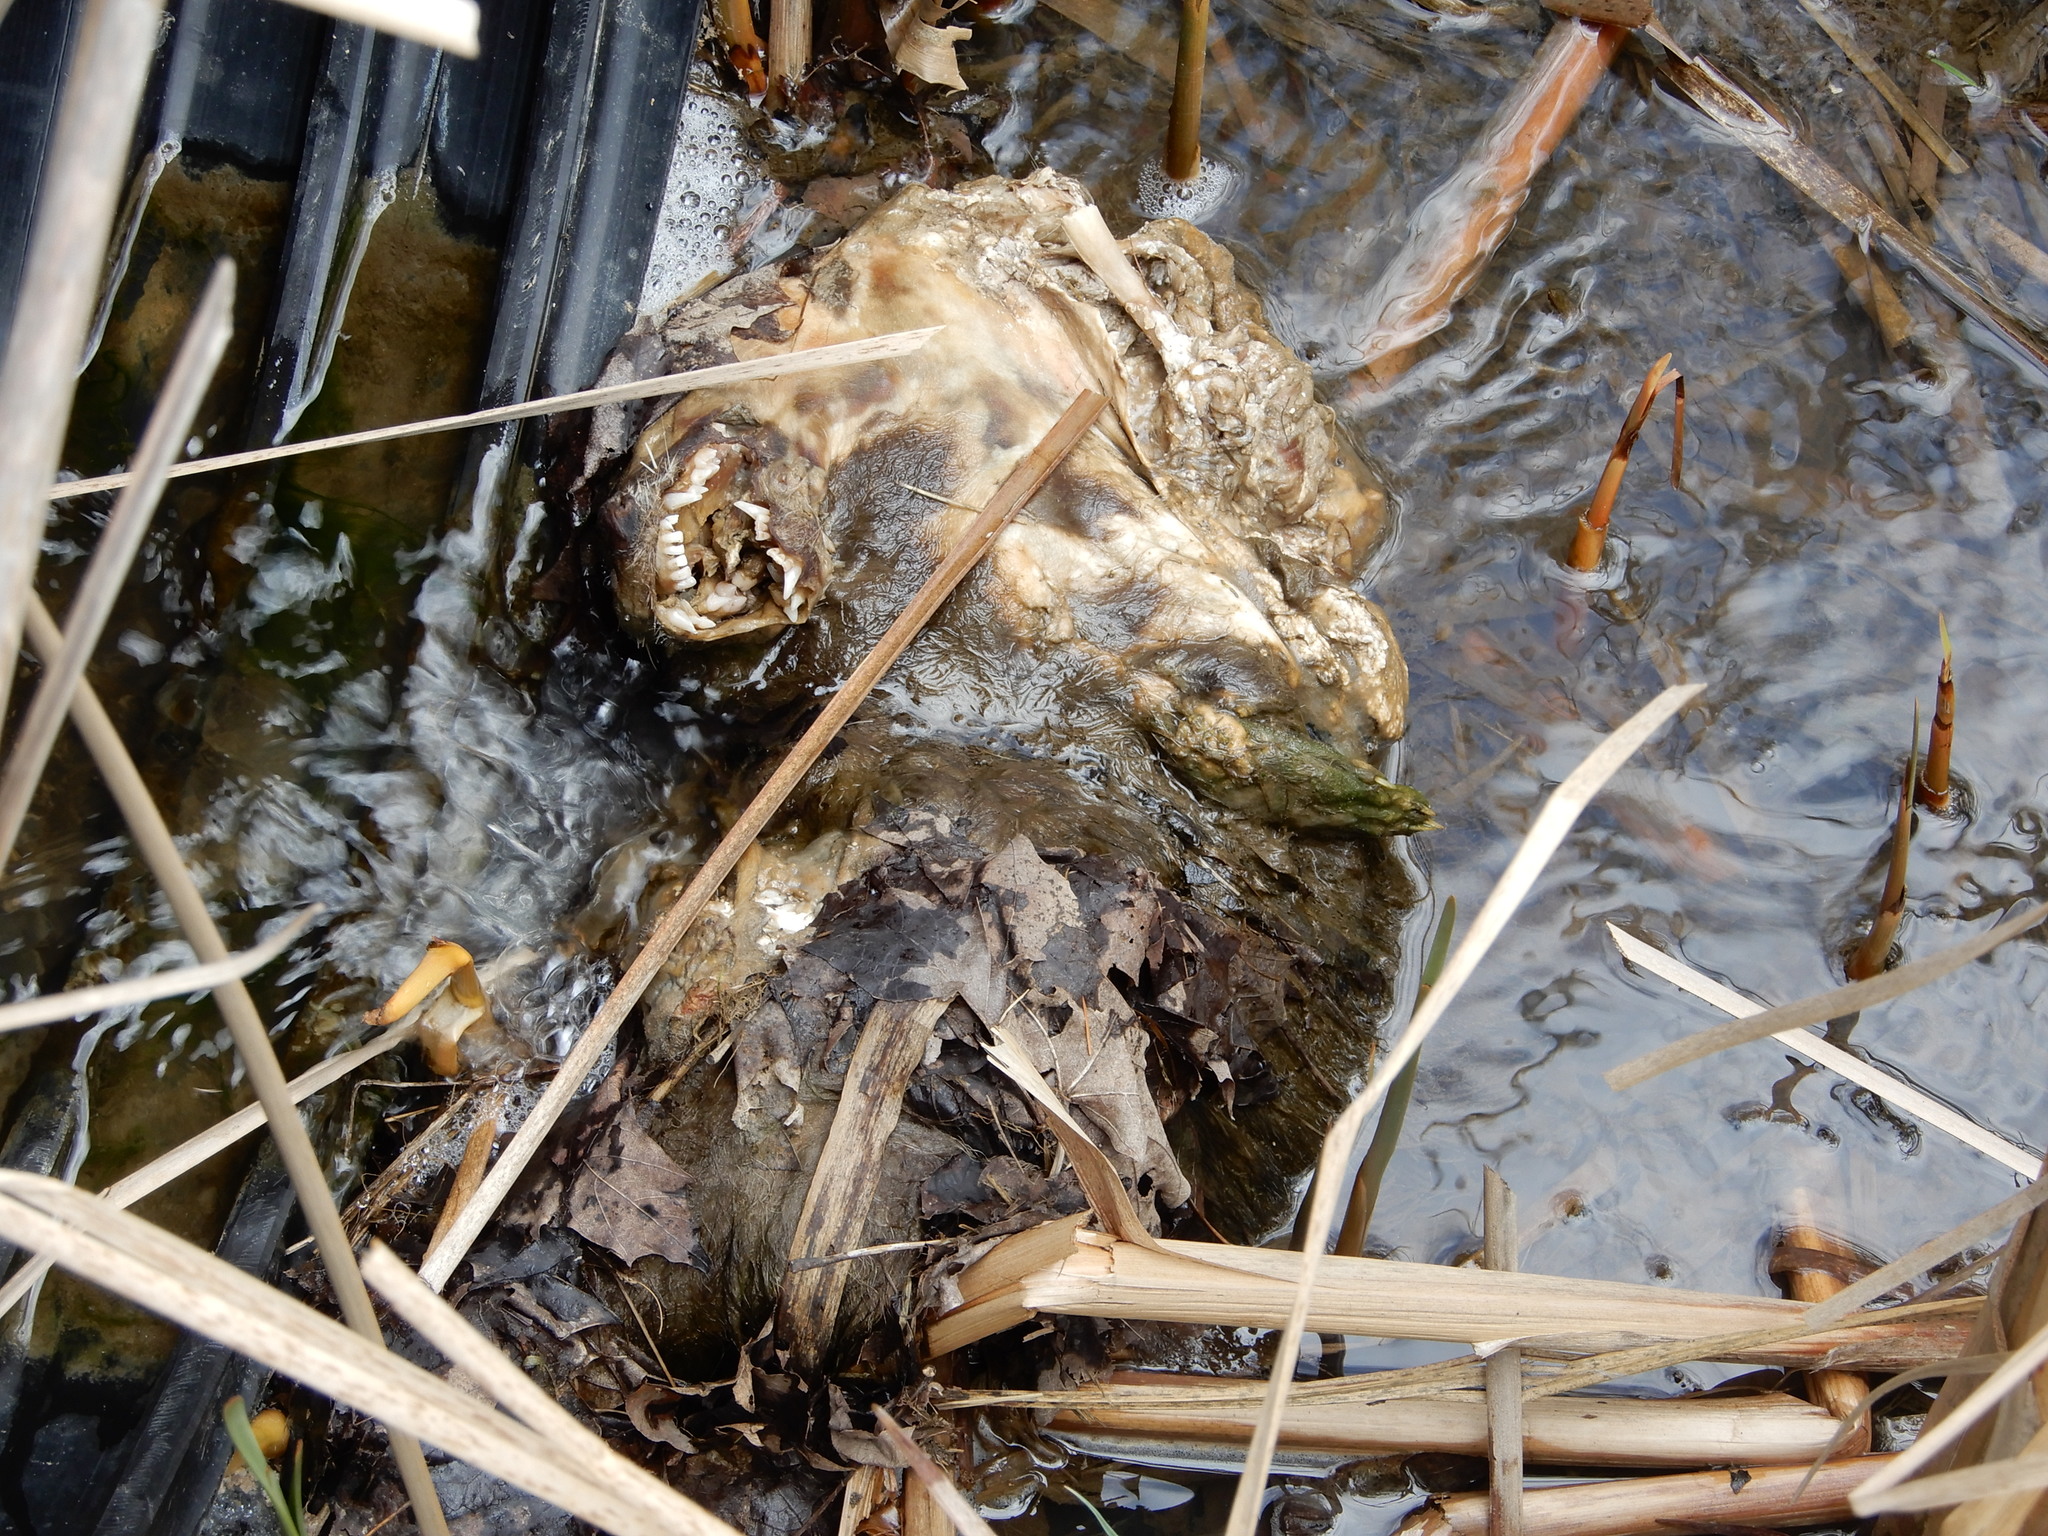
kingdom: Animalia
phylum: Chordata
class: Mammalia
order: Carnivora
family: Mustelidae
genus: Lontra
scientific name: Lontra canadensis
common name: North american river otter
